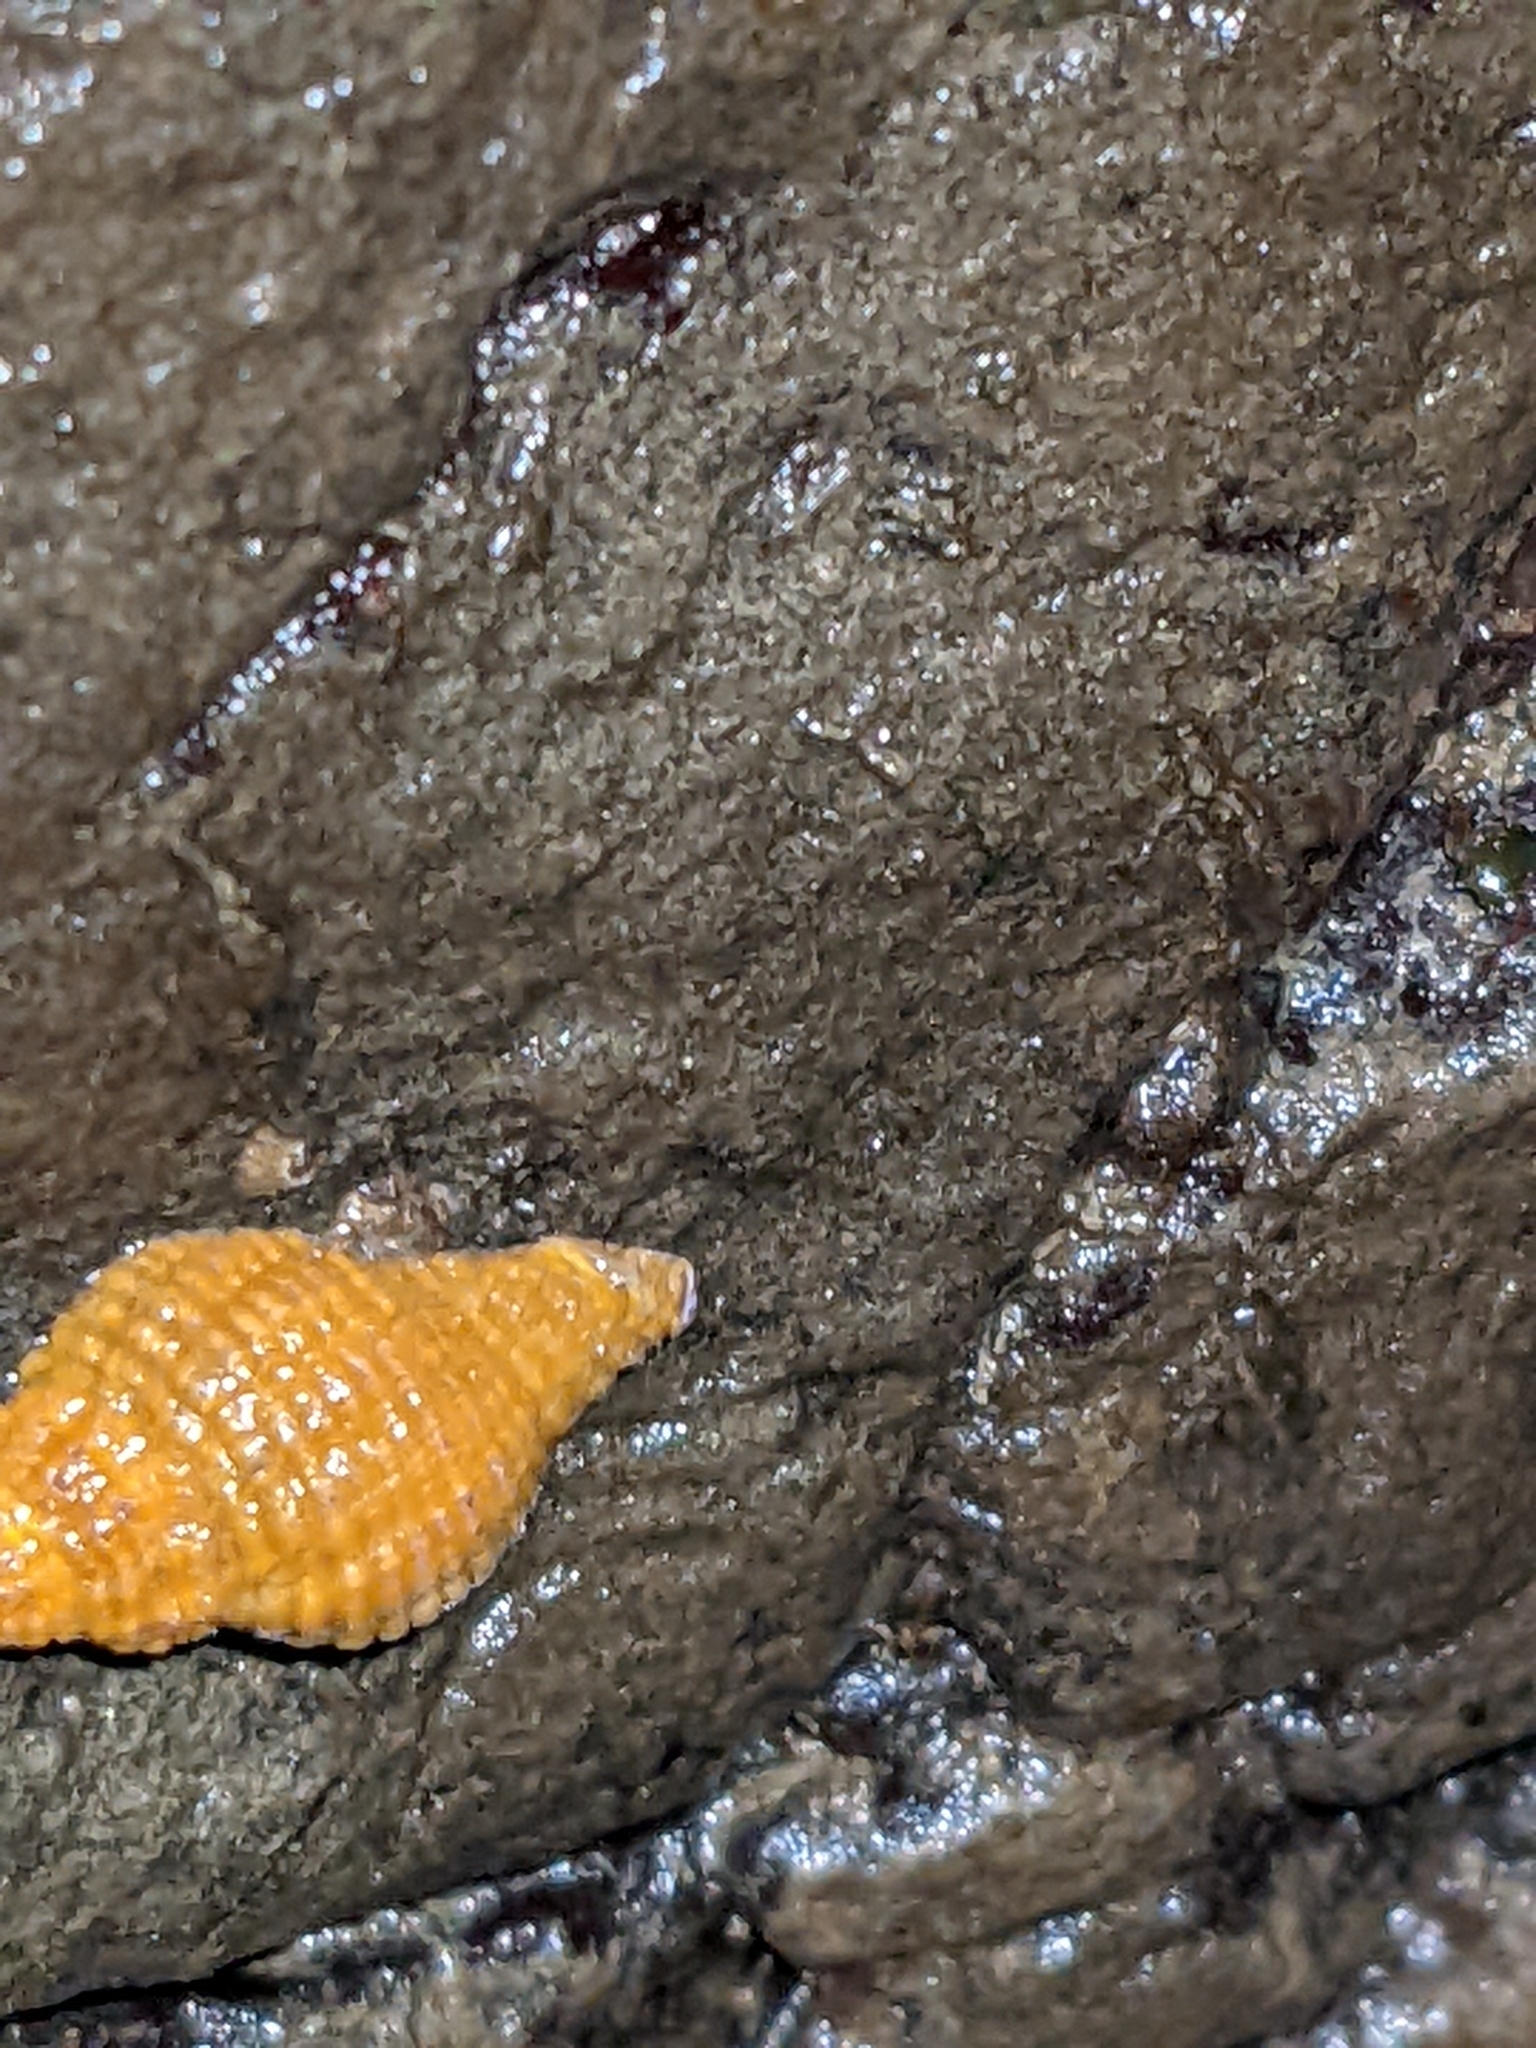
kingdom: Animalia
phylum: Mollusca
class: Gastropoda
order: Neogastropoda
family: Muricidae
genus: Paciocinebrina
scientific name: Paciocinebrina lurida
